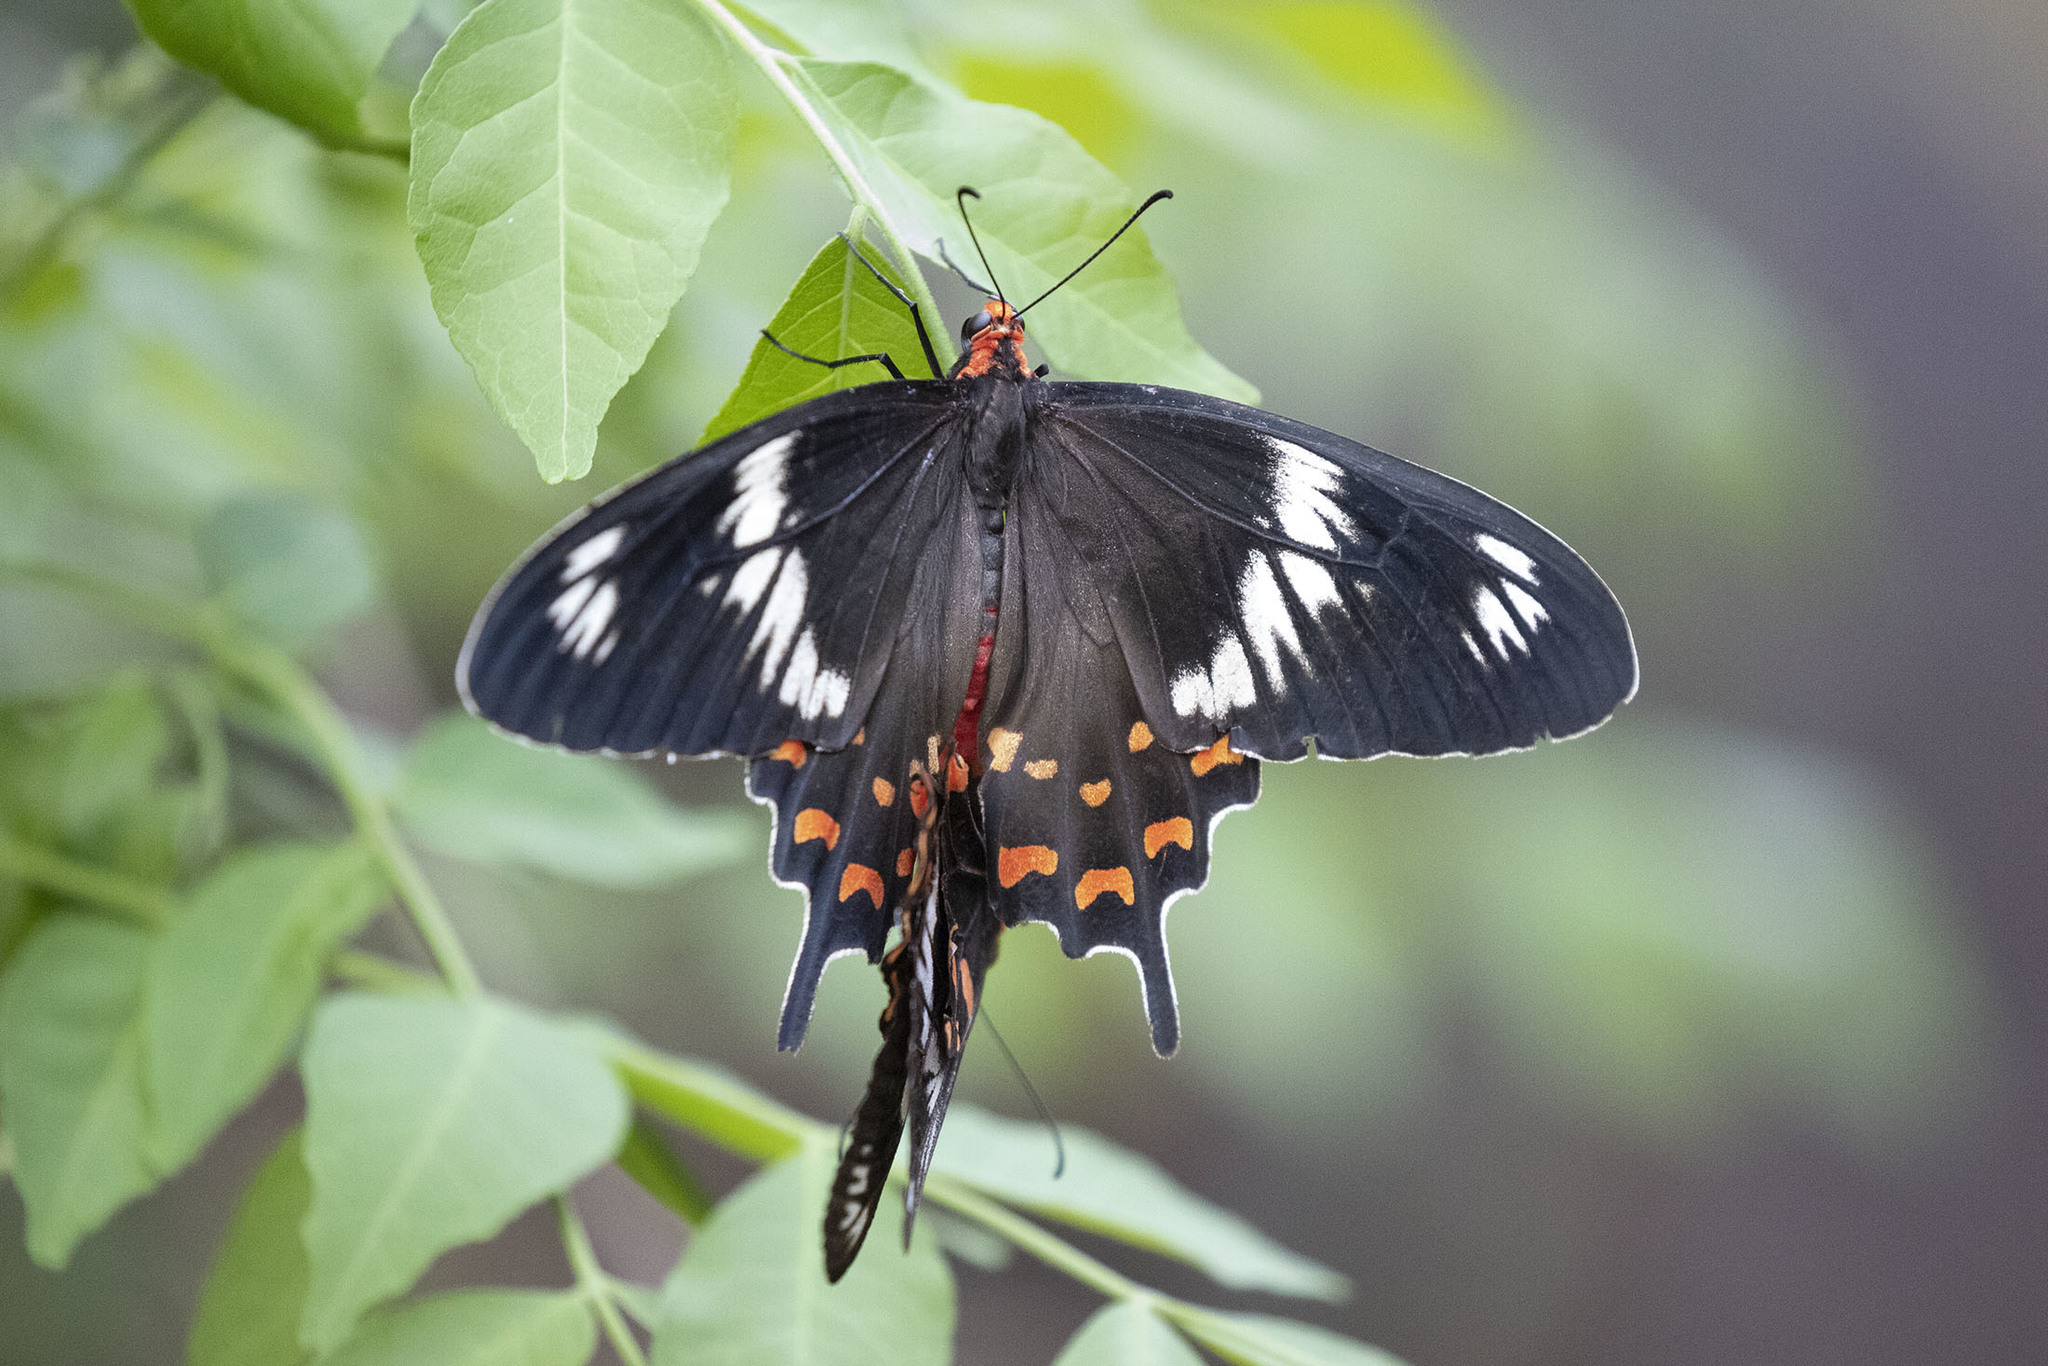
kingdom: Animalia
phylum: Arthropoda
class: Insecta
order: Lepidoptera
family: Papilionidae
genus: Pachliopta
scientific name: Pachliopta hector
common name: Crimson rose
